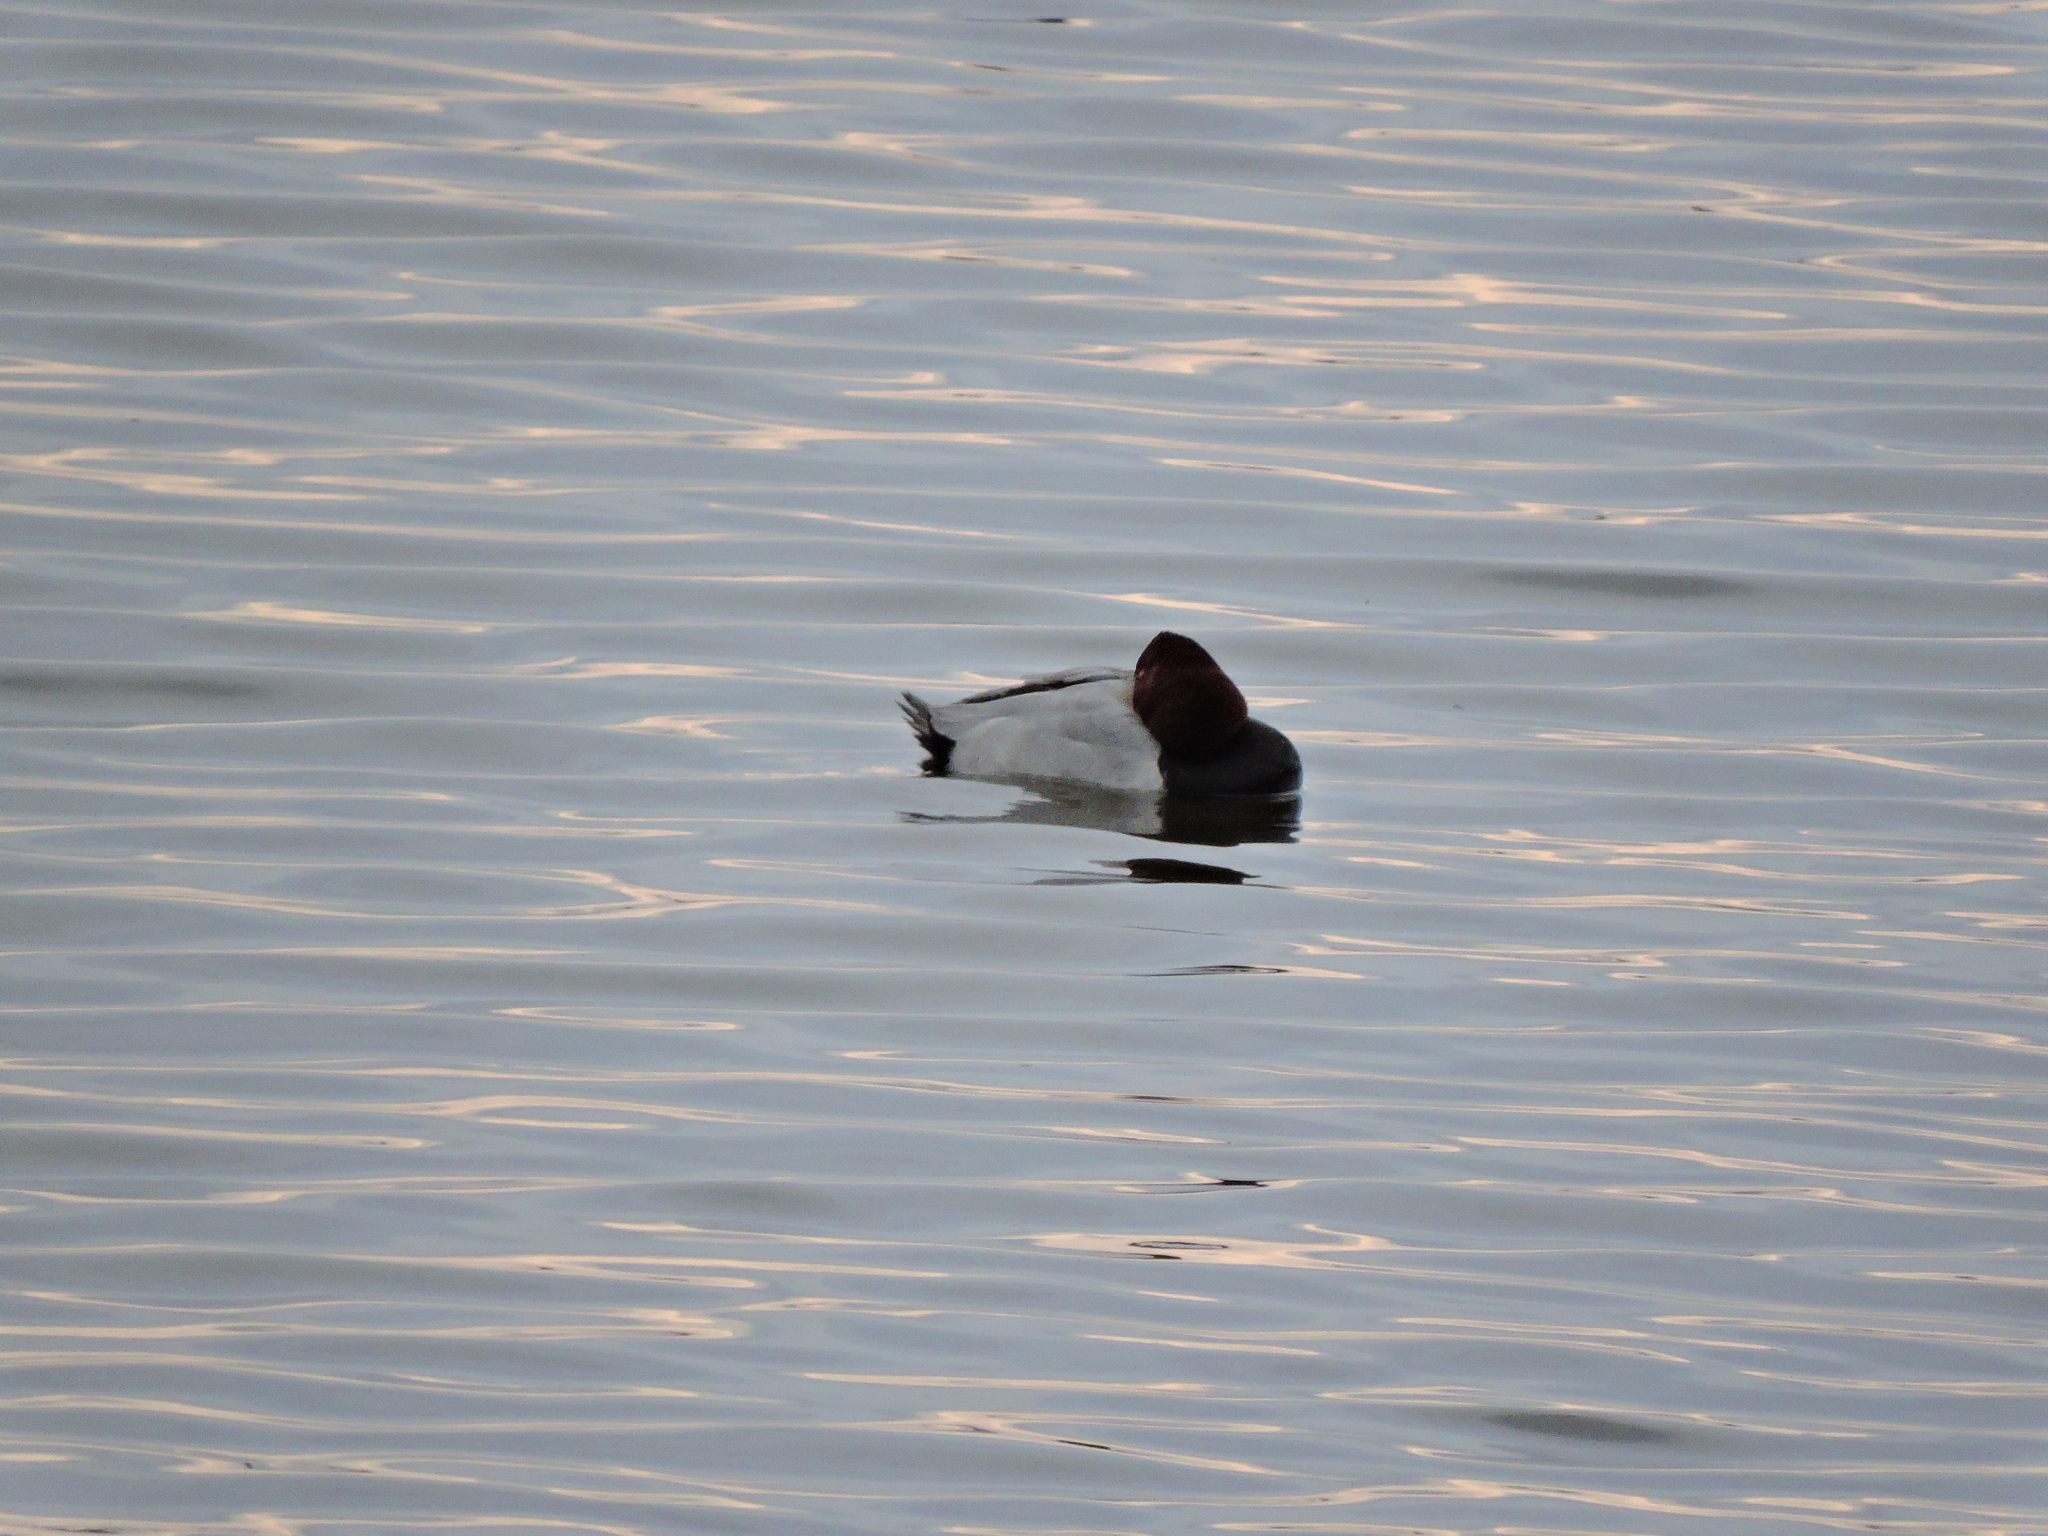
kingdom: Animalia
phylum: Chordata
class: Aves
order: Anseriformes
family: Anatidae
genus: Aythya
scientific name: Aythya ferina
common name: Common pochard
